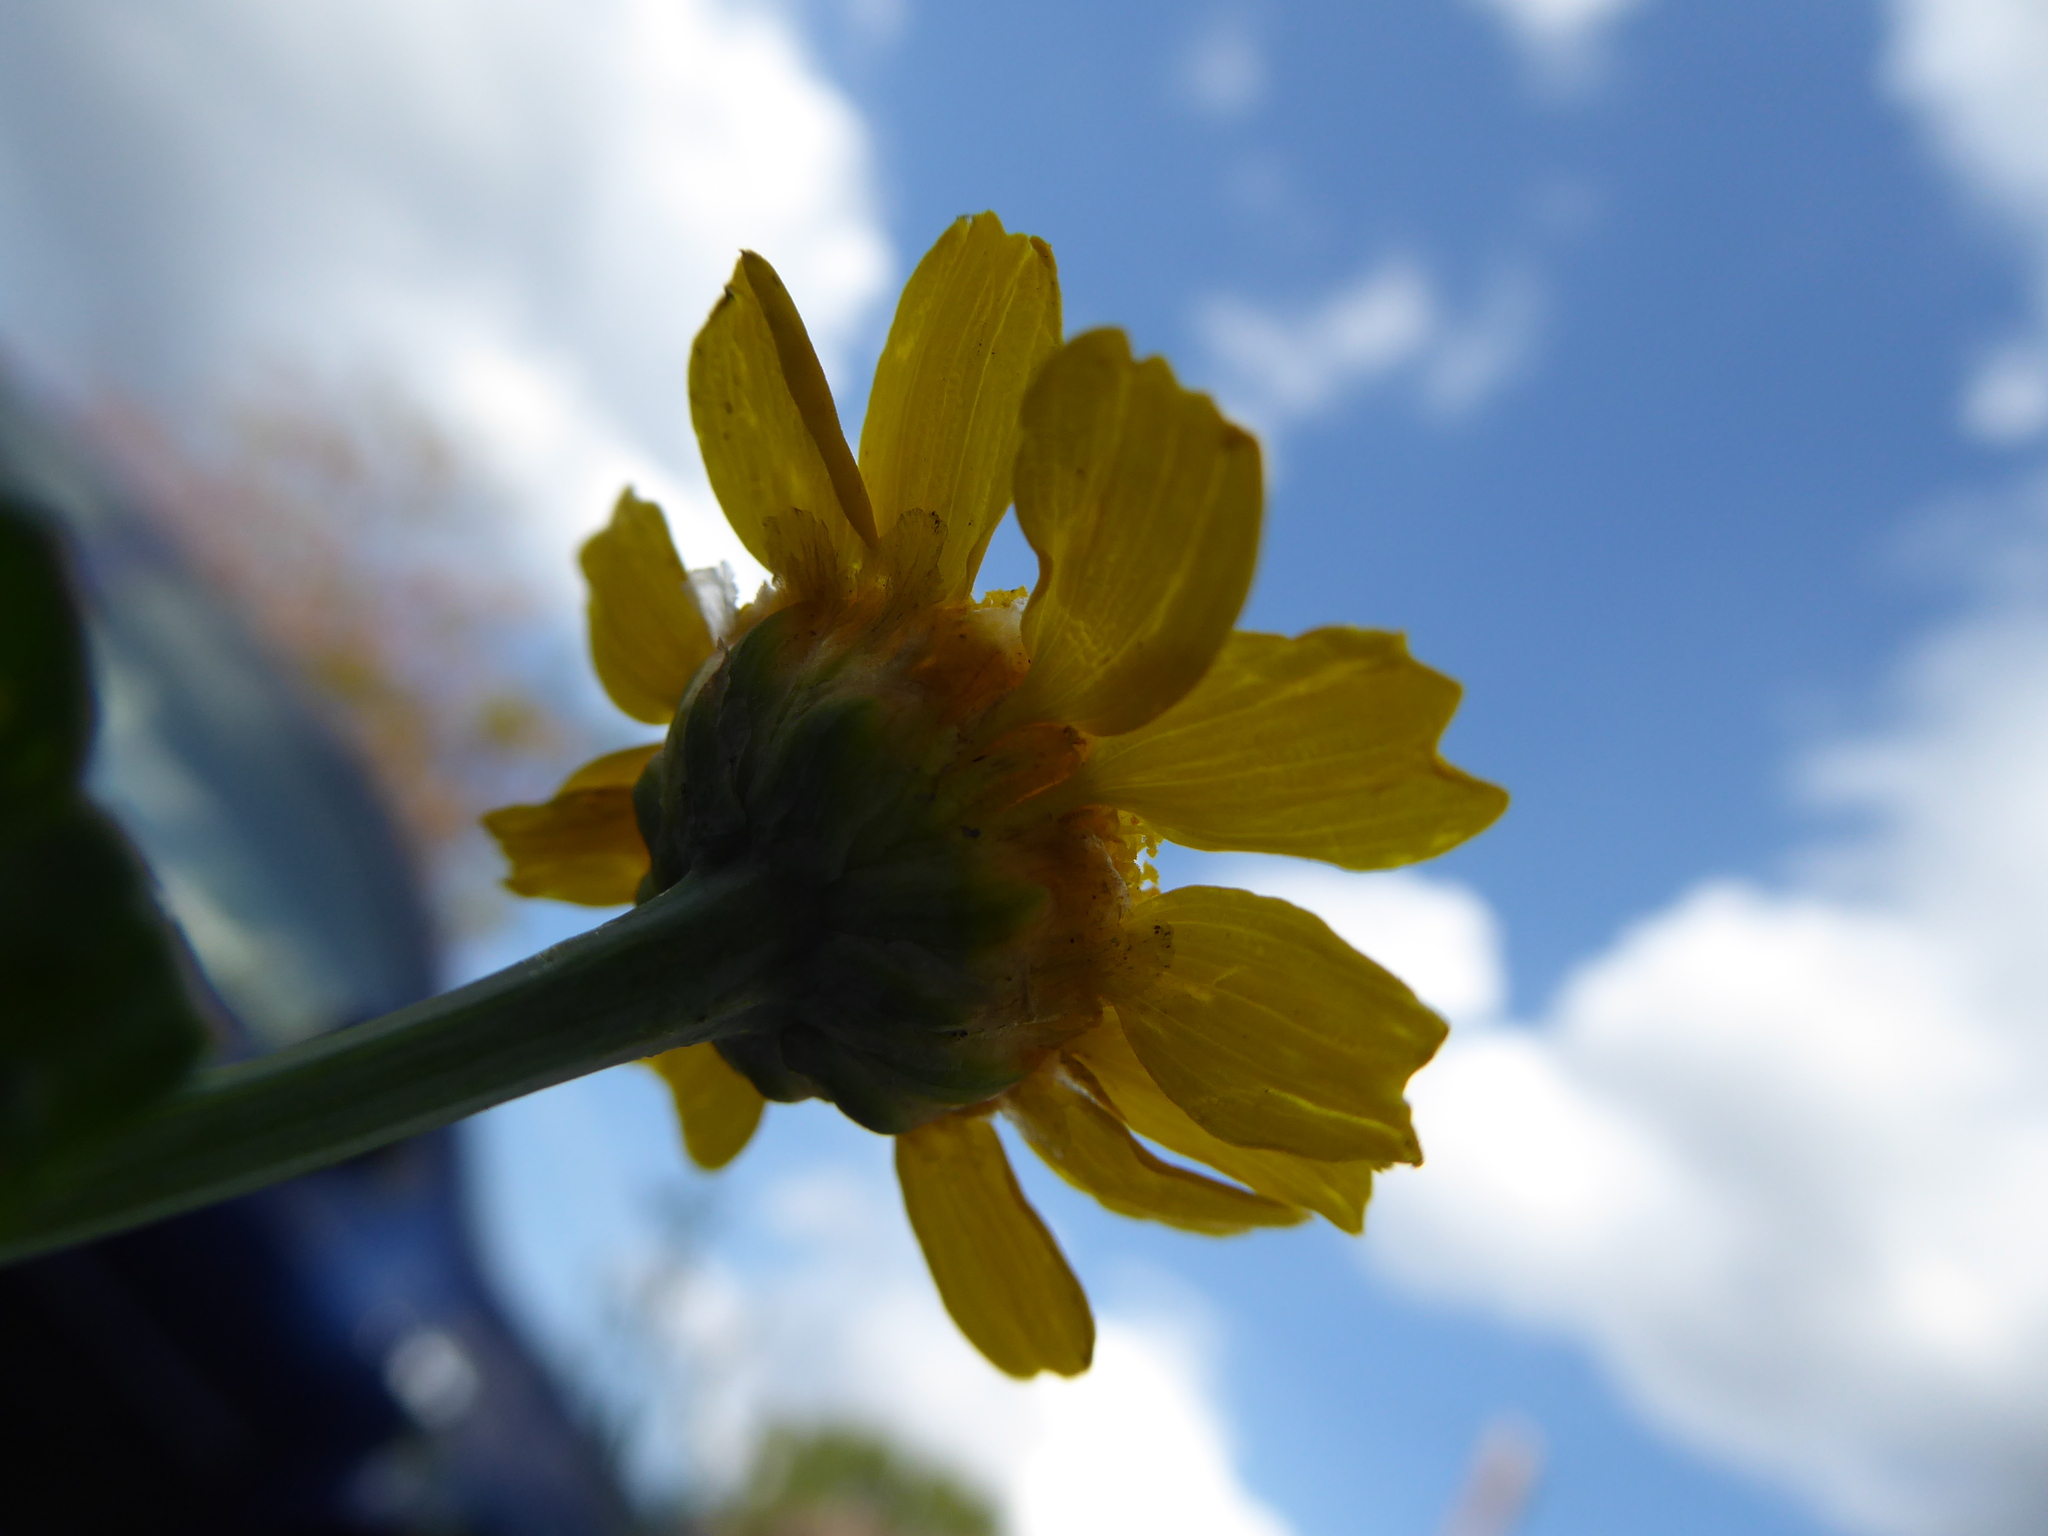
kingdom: Plantae
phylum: Tracheophyta
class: Magnoliopsida
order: Asterales
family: Asteraceae
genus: Glebionis
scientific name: Glebionis segetum
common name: Corndaisy
